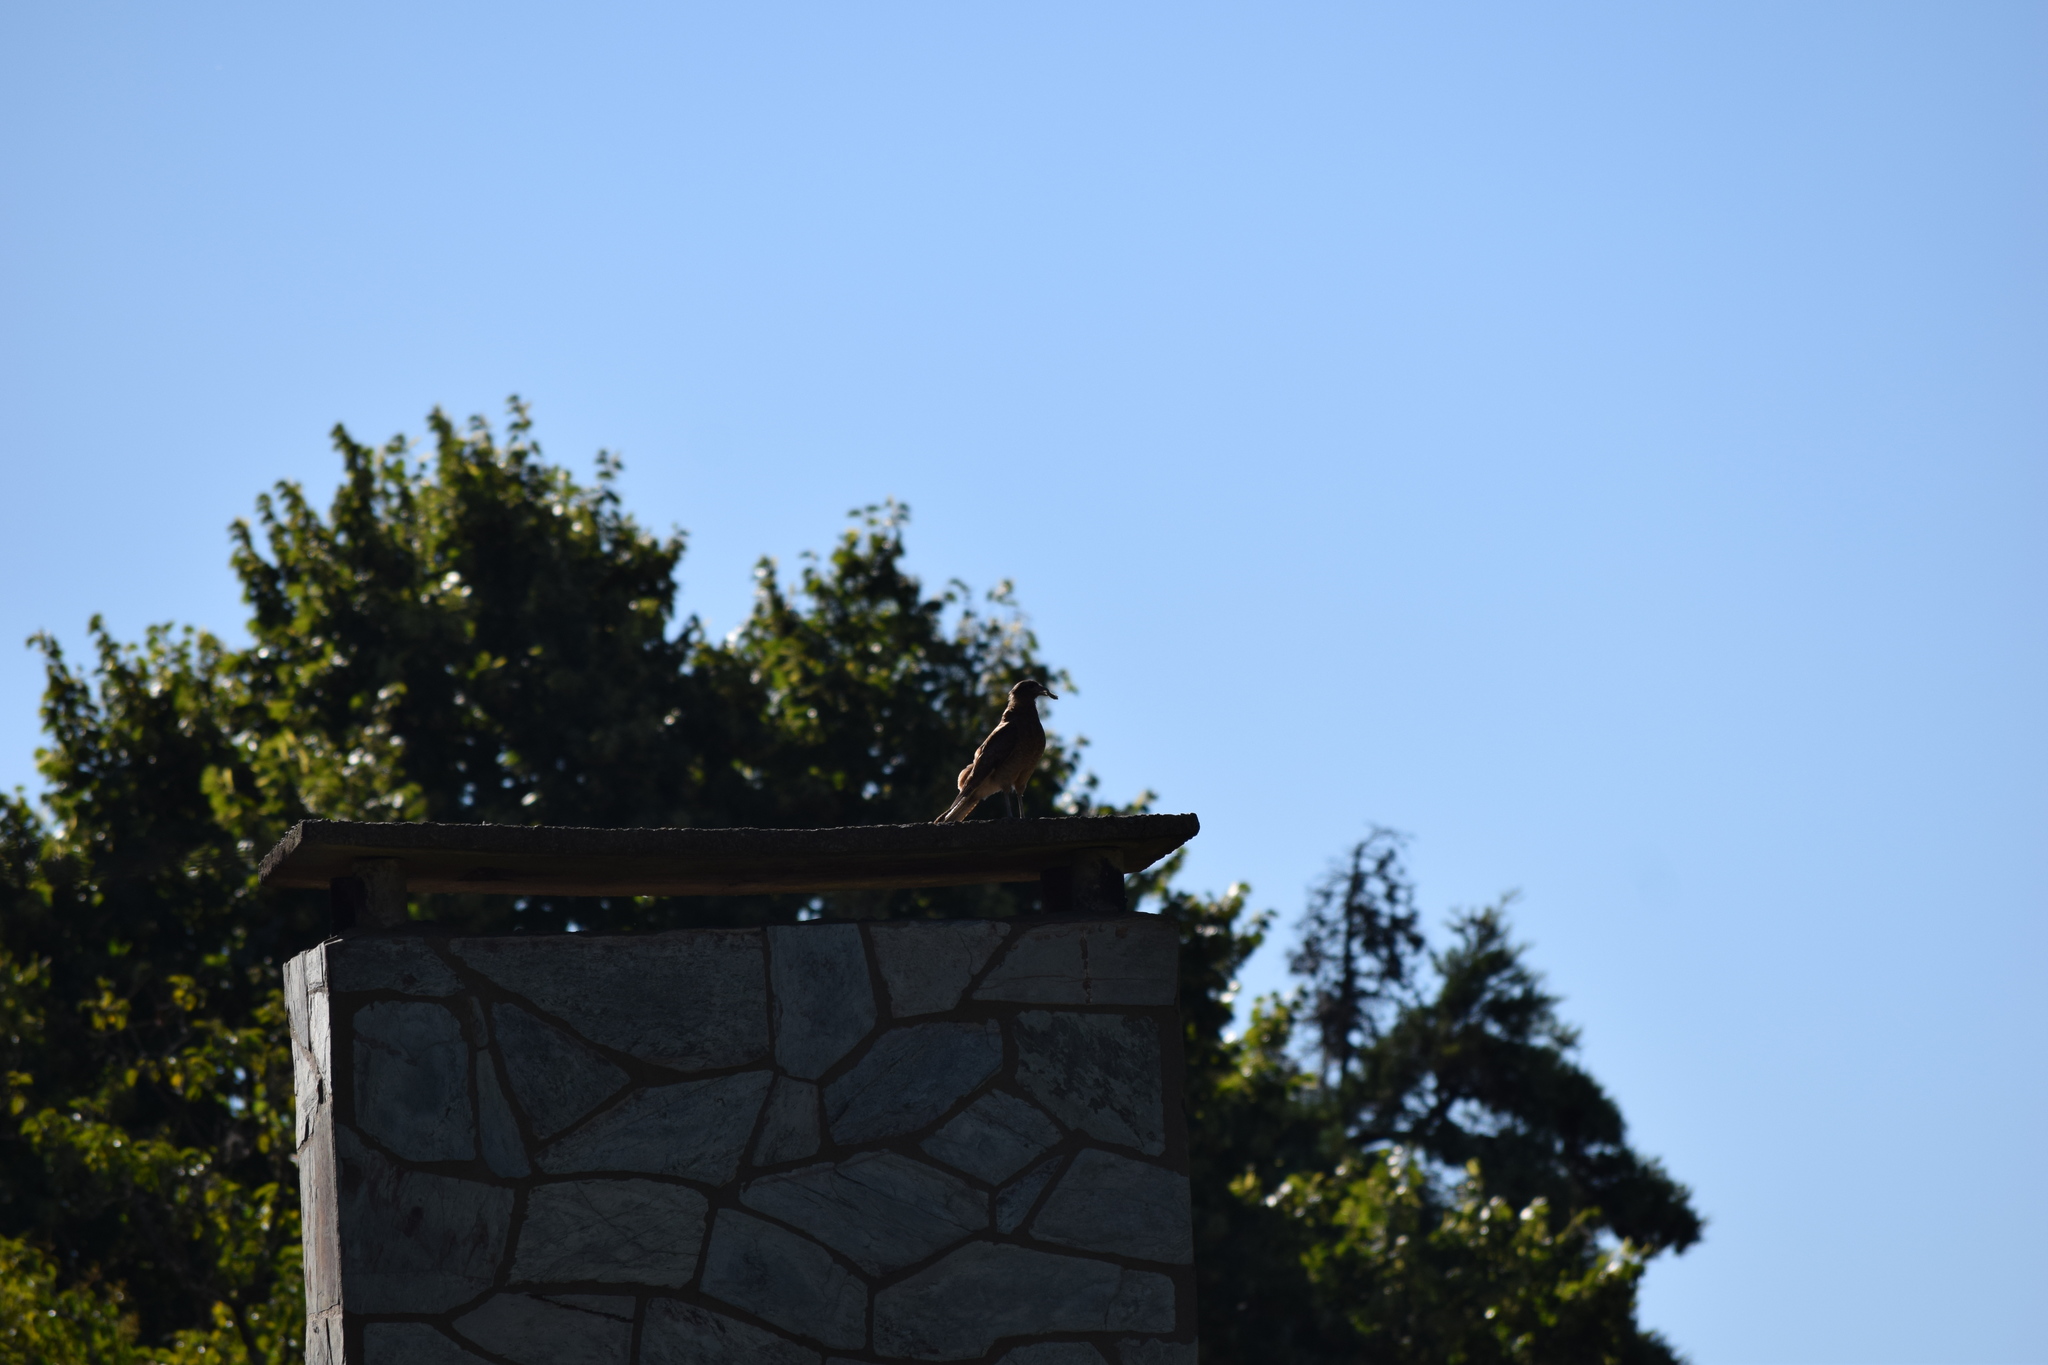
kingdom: Animalia
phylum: Chordata
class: Aves
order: Falconiformes
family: Falconidae
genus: Daptrius
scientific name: Daptrius
